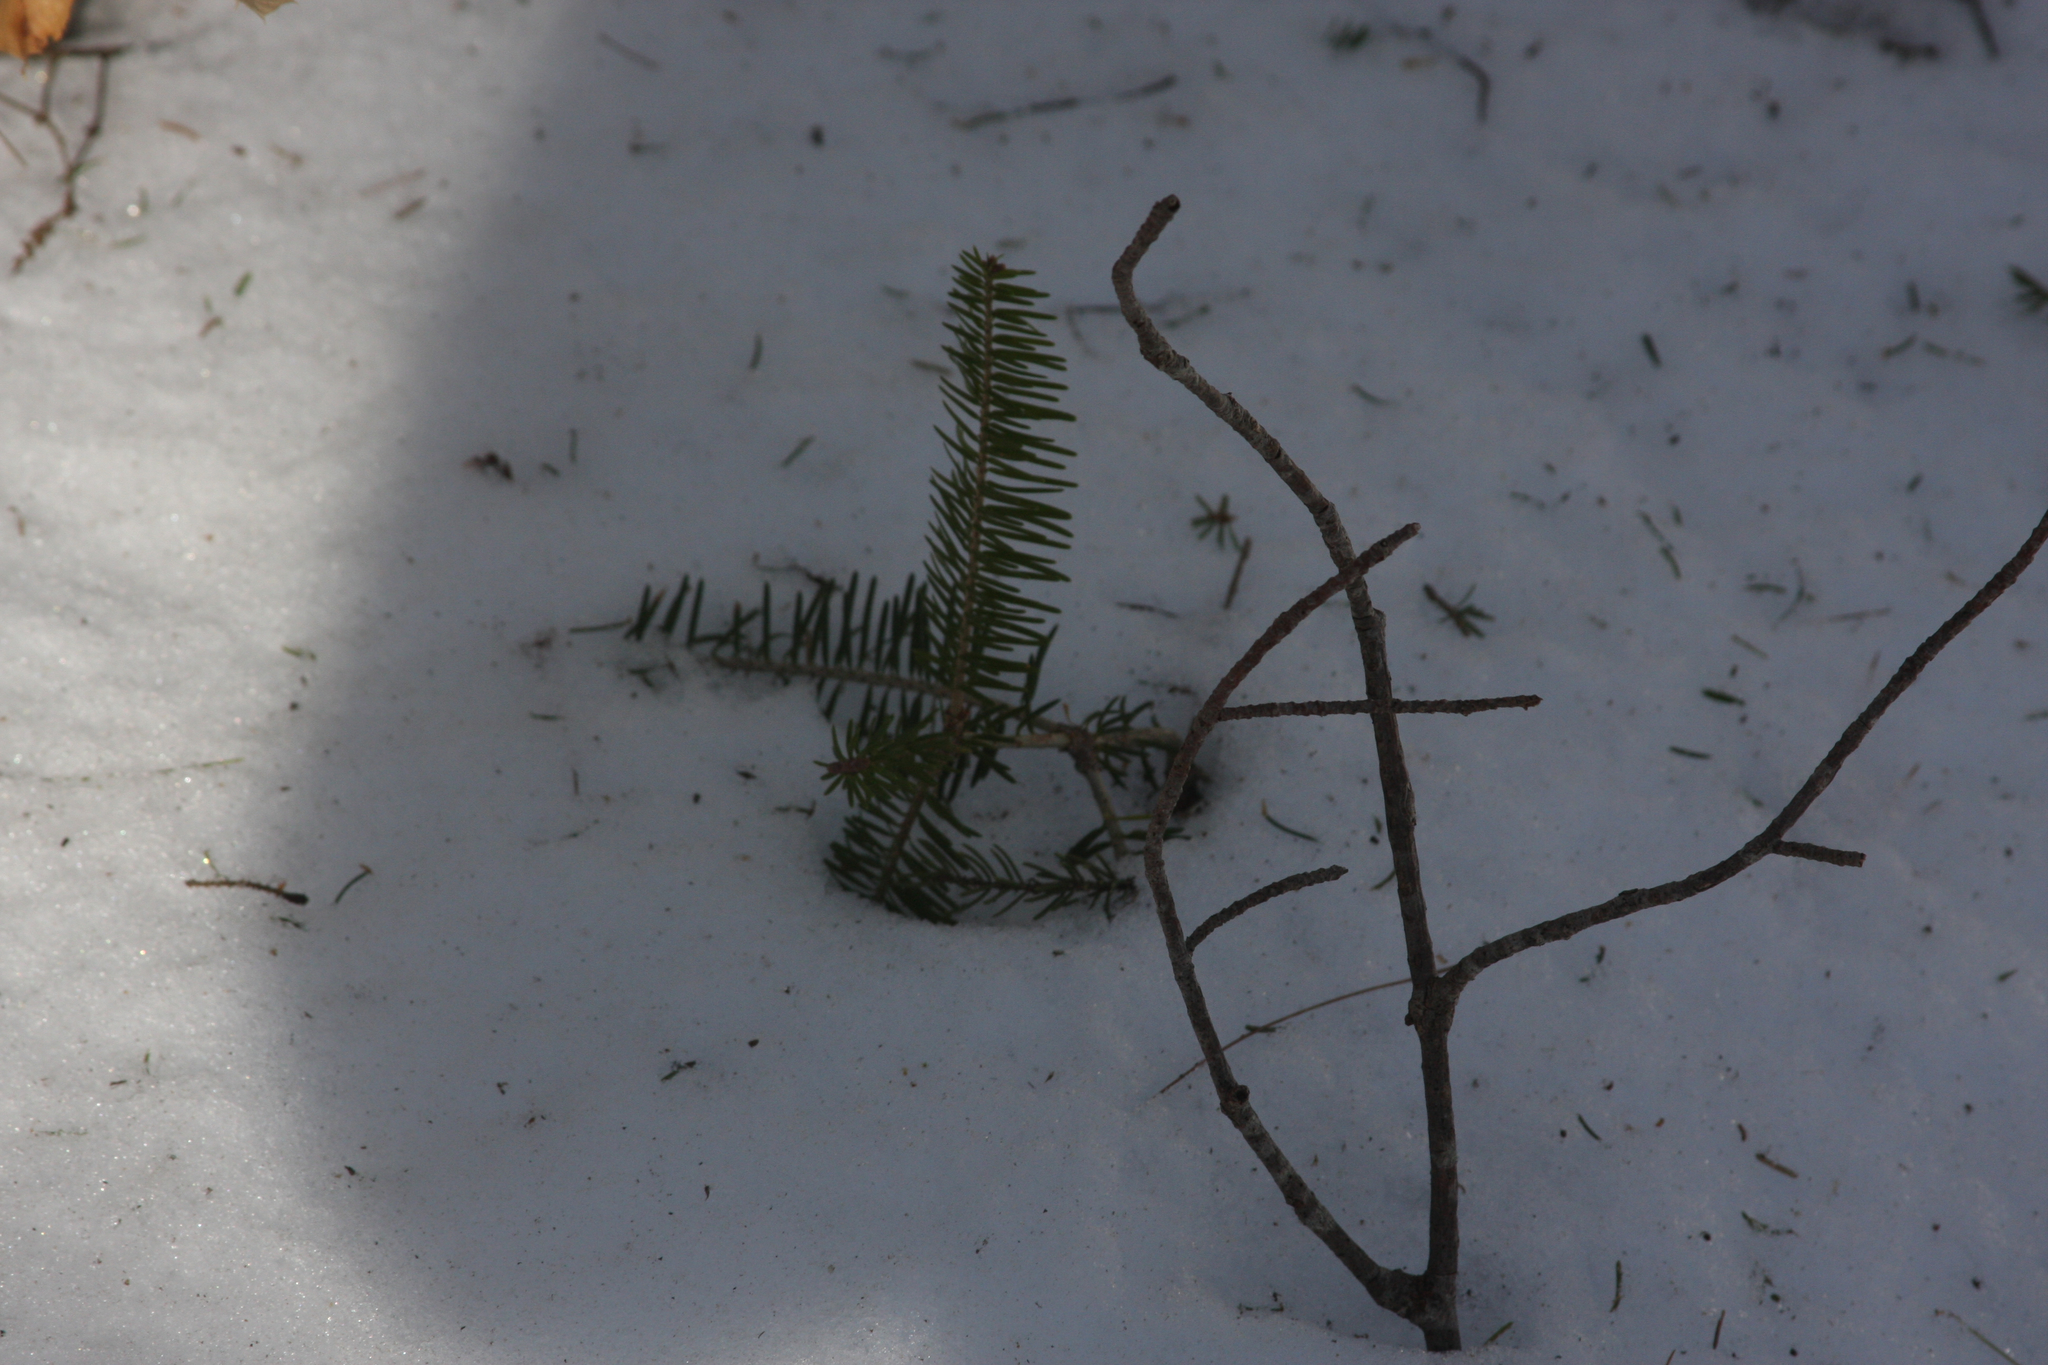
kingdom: Plantae
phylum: Tracheophyta
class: Pinopsida
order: Pinales
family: Pinaceae
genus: Abies
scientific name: Abies balsamea
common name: Balsam fir
